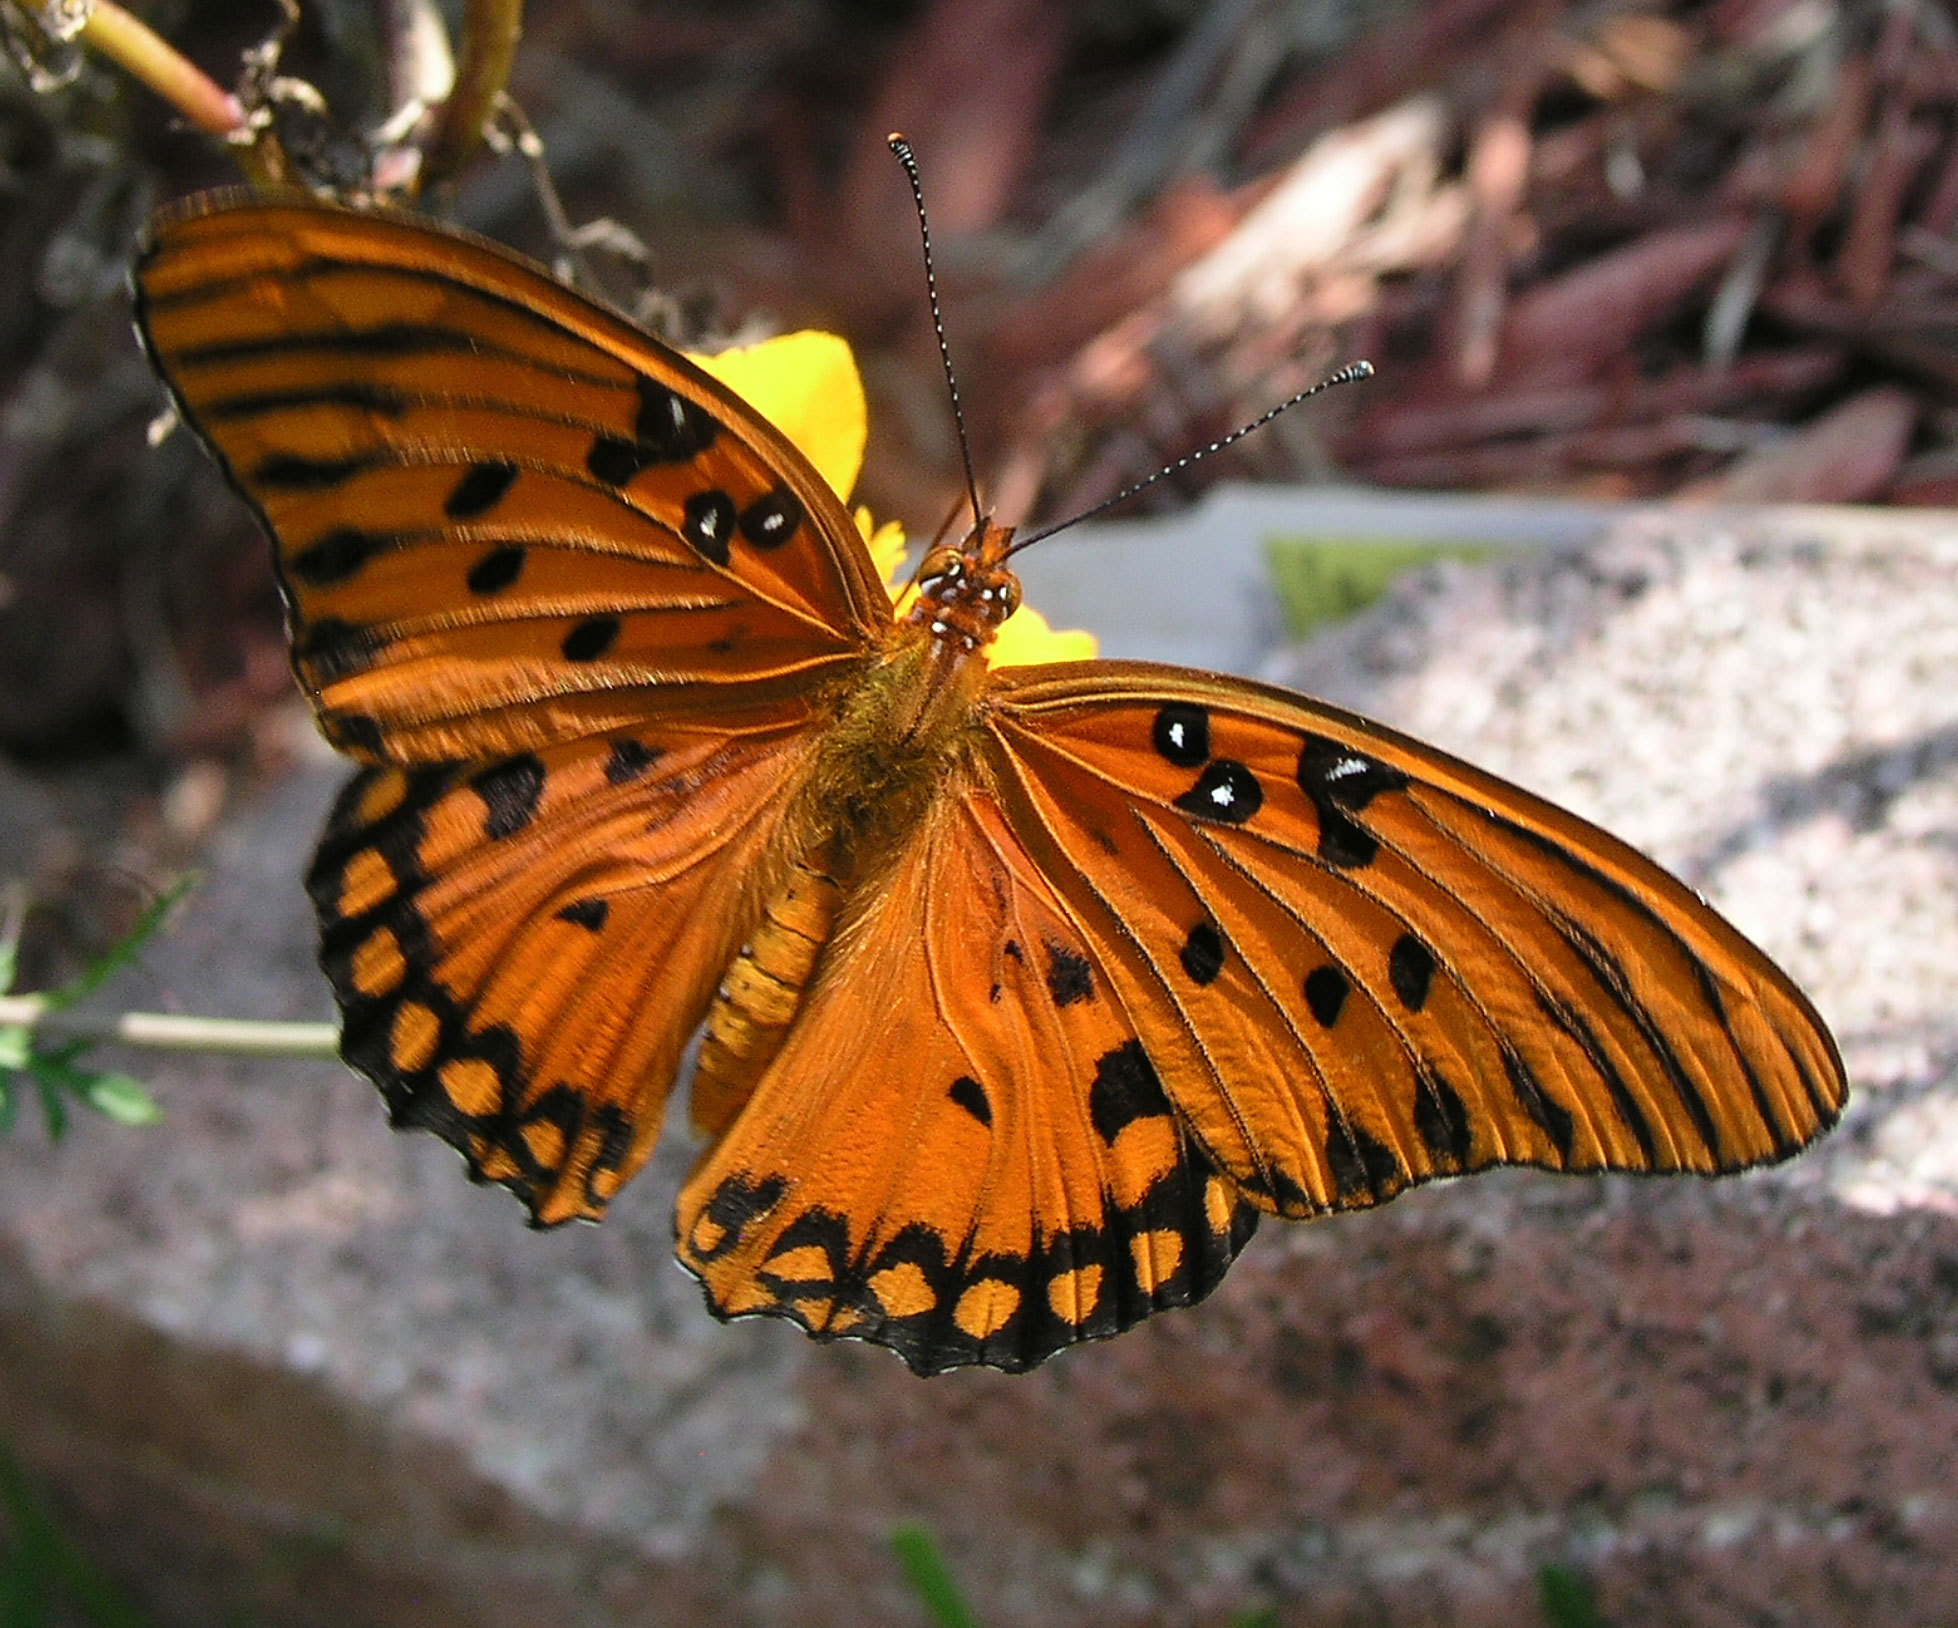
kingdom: Animalia
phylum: Arthropoda
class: Insecta
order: Lepidoptera
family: Nymphalidae
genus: Dione
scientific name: Dione vanillae
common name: Gulf fritillary
